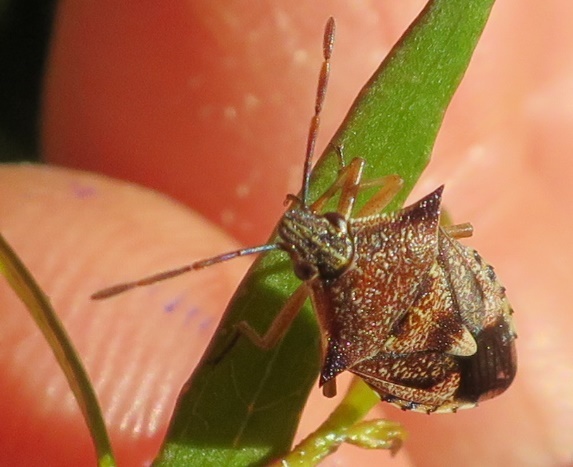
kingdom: Animalia
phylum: Arthropoda
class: Insecta
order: Hemiptera
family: Pentatomidae
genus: Oechalia
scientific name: Oechalia schellenbergii
